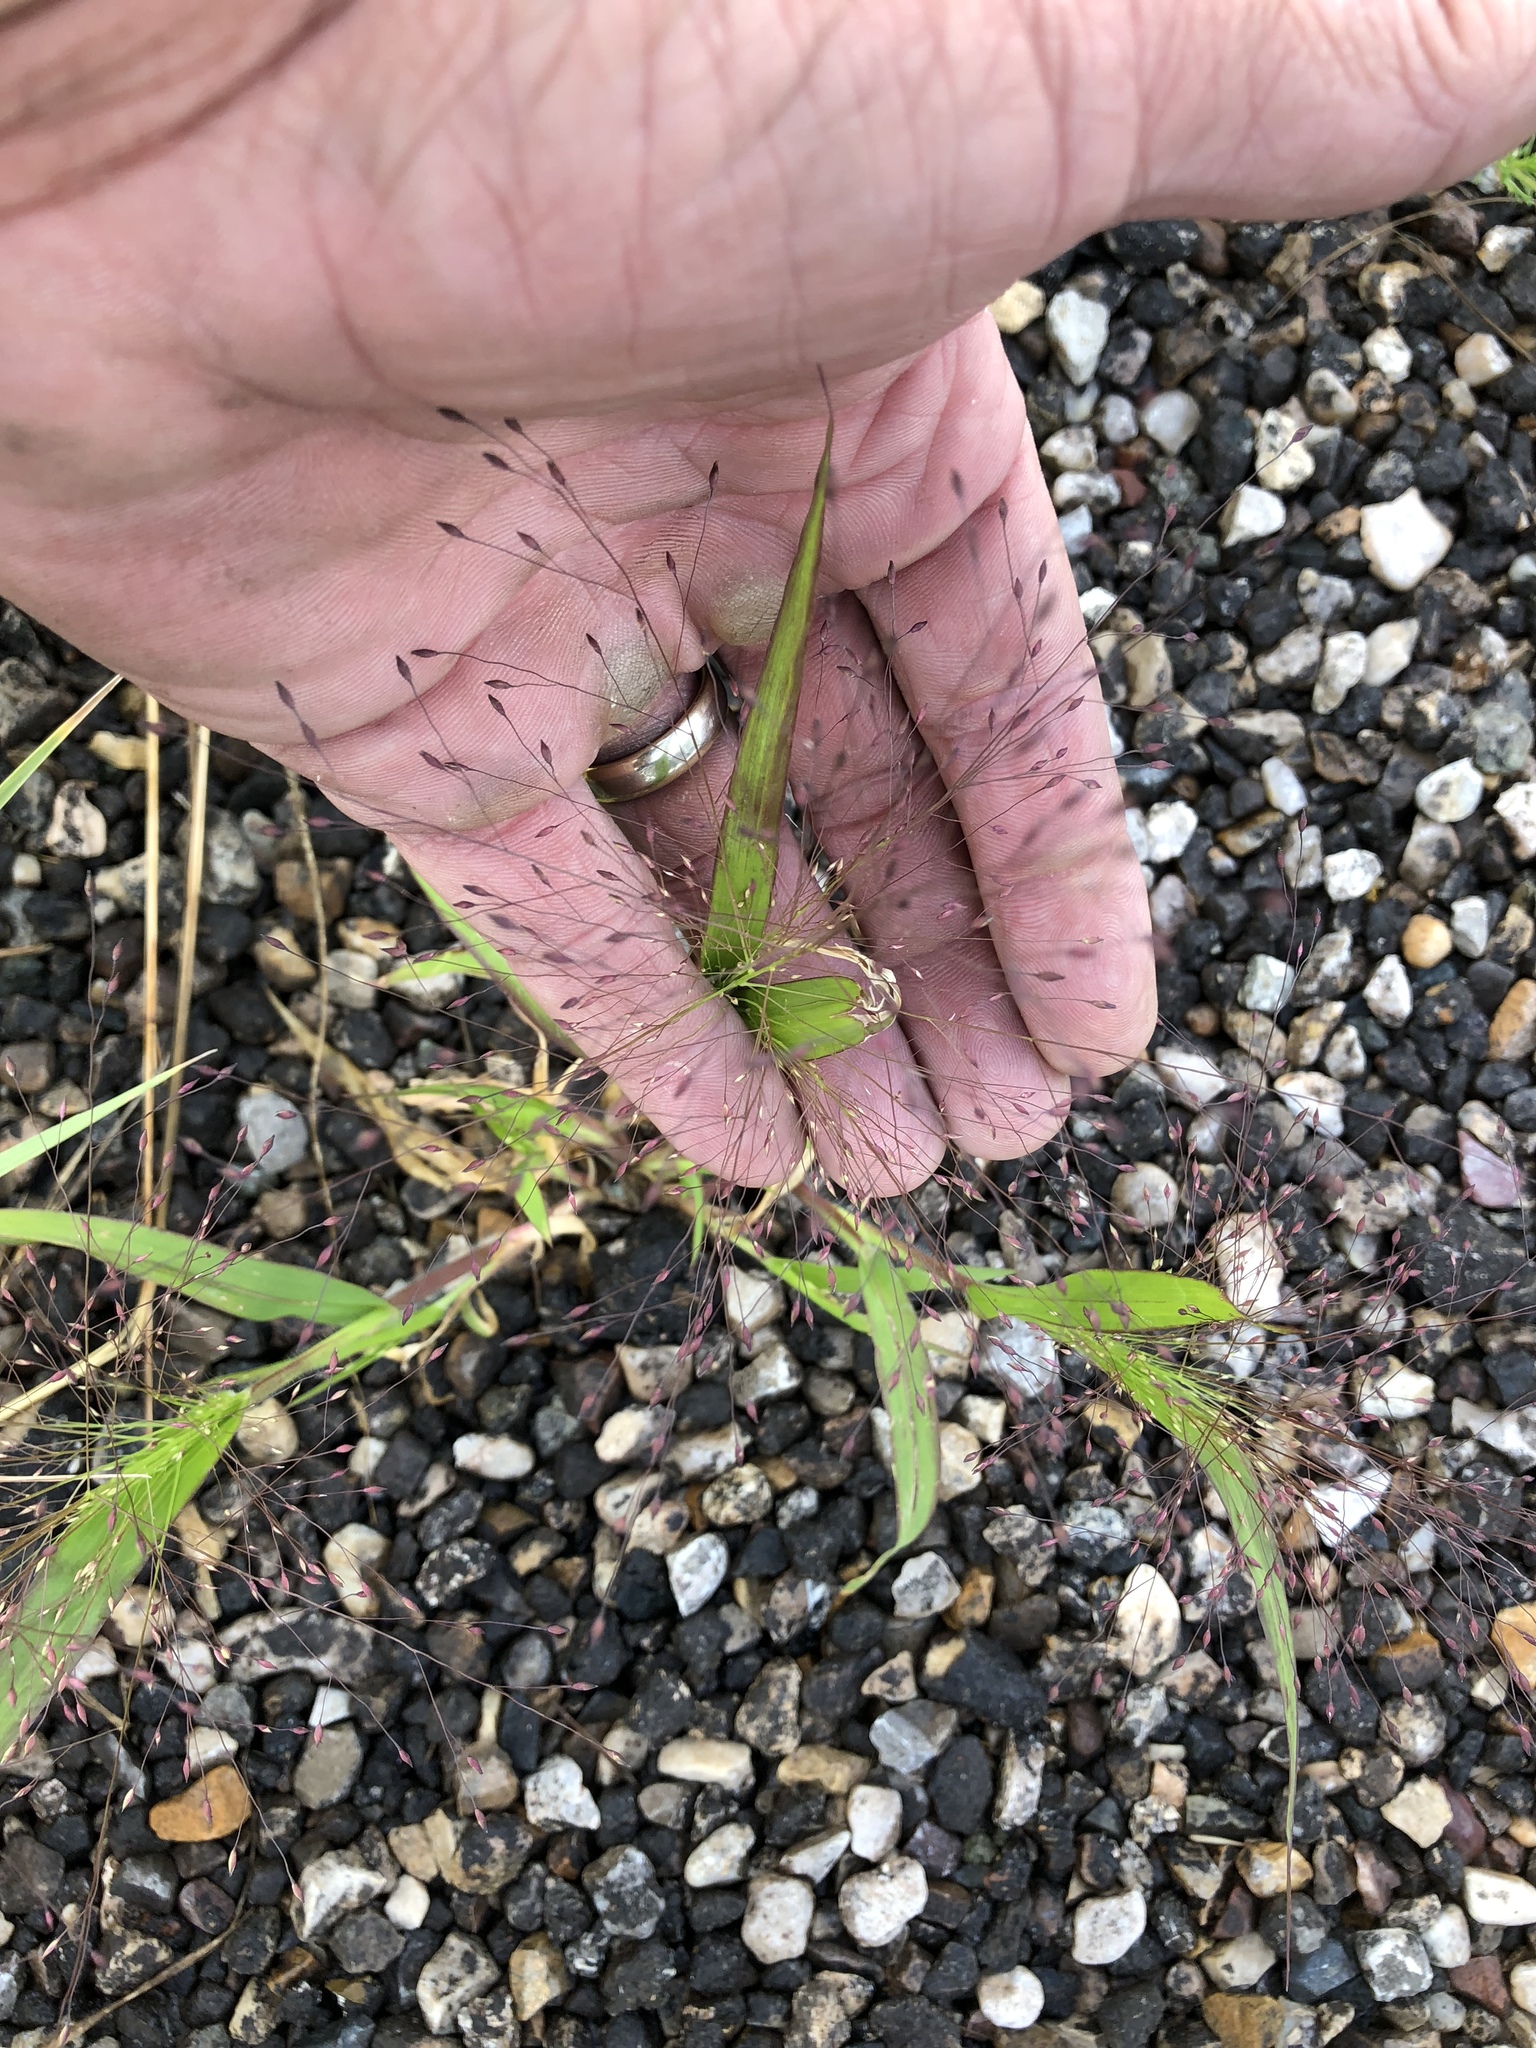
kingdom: Plantae
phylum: Tracheophyta
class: Liliopsida
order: Poales
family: Poaceae
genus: Panicum
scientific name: Panicum capillare
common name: Witch-grass
